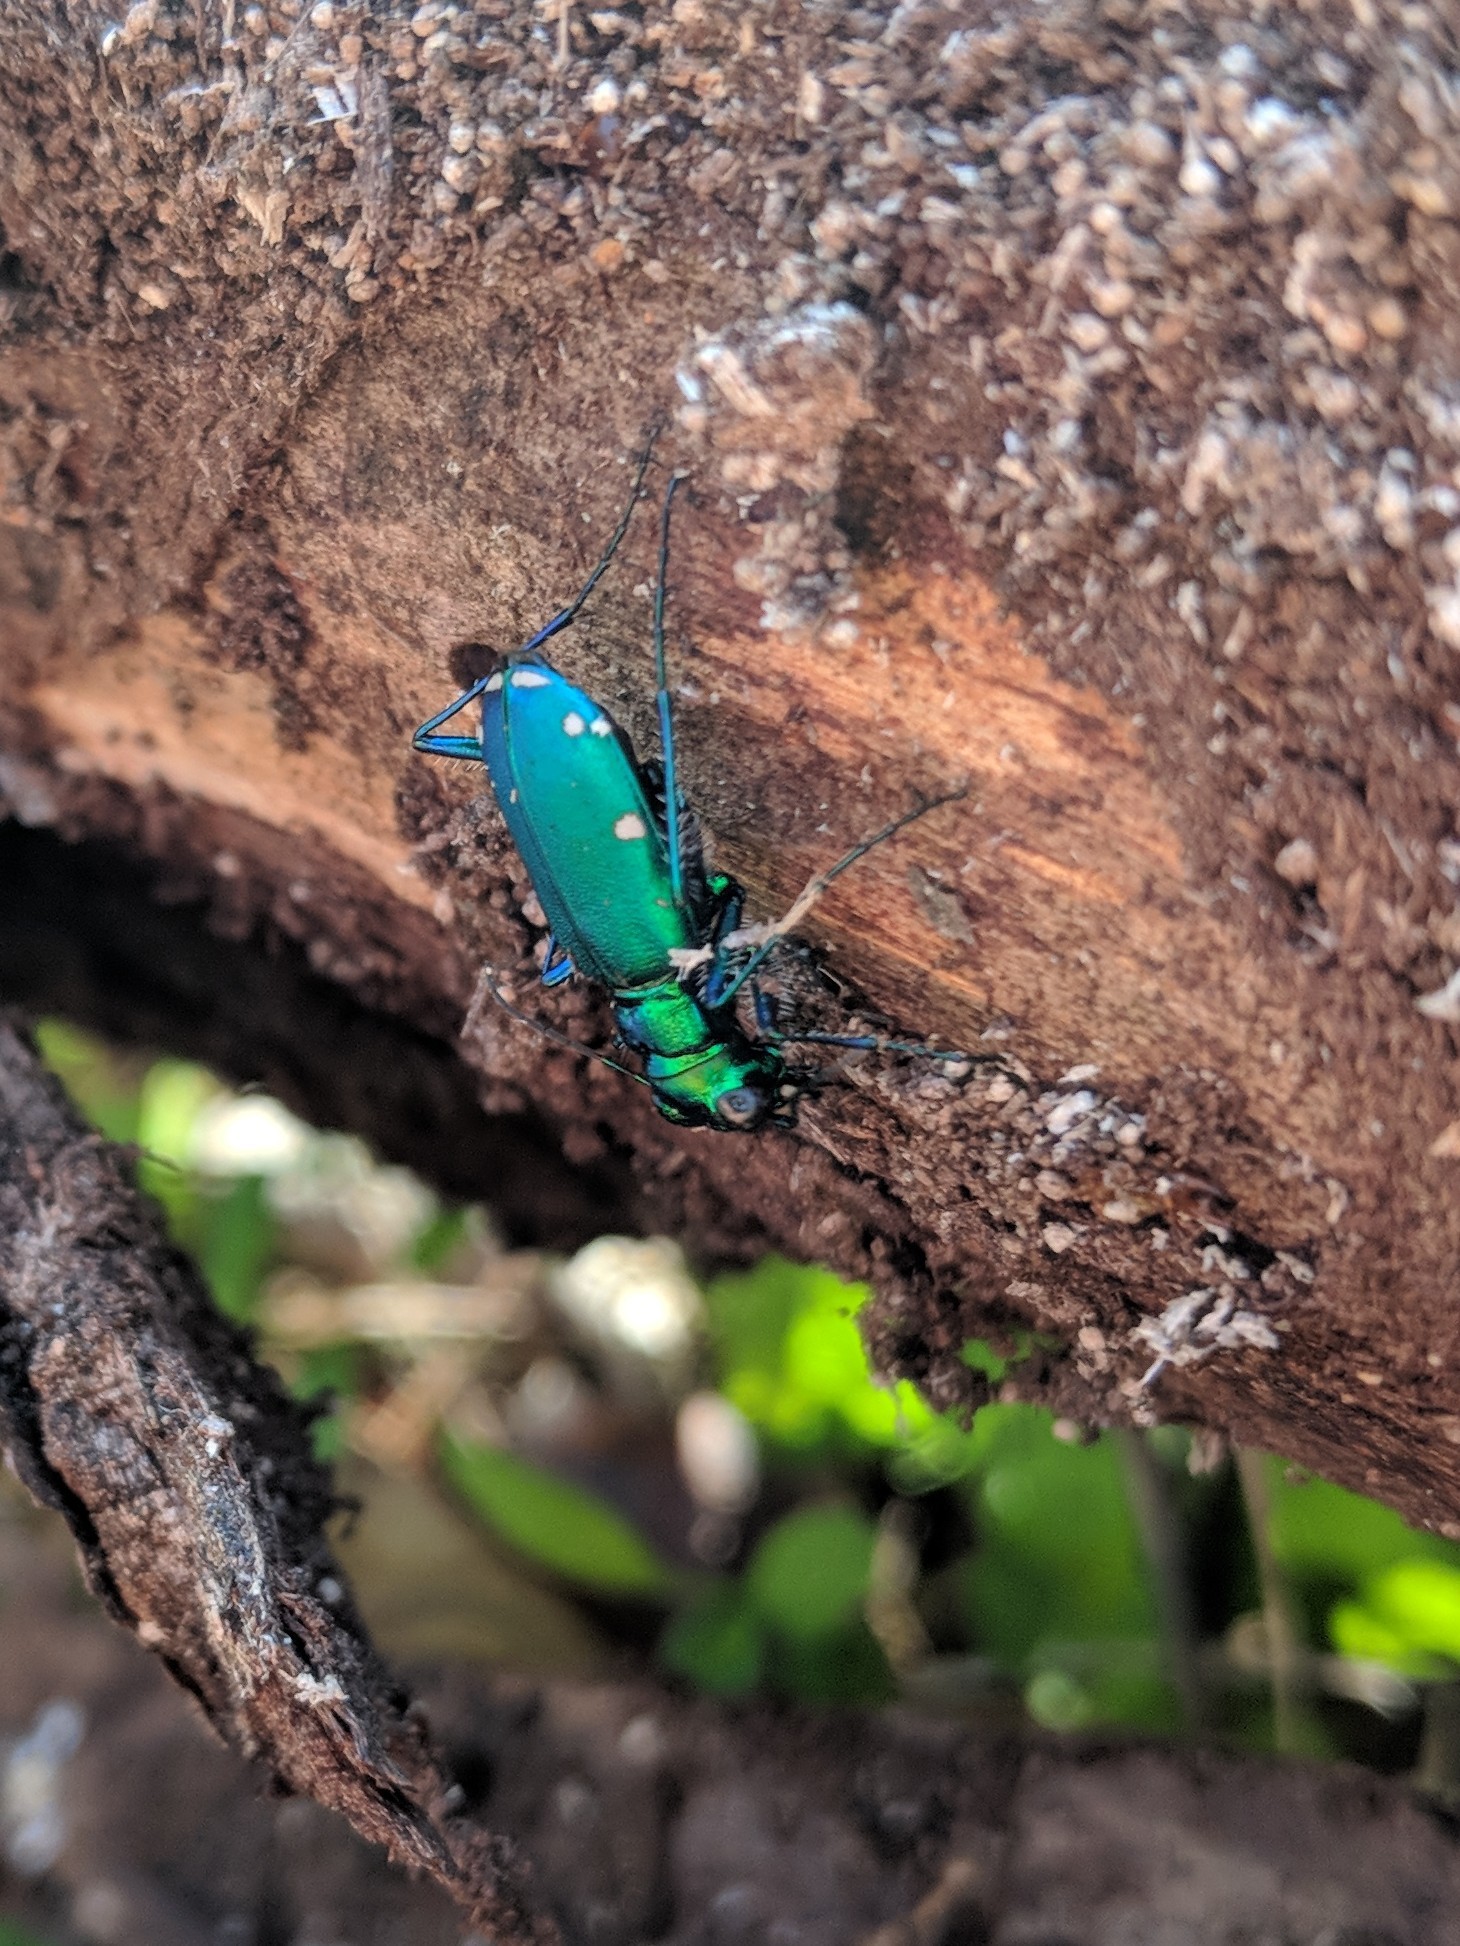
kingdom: Animalia
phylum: Arthropoda
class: Insecta
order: Coleoptera
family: Carabidae
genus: Cicindela
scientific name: Cicindela sexguttata
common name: Six-spotted tiger beetle
